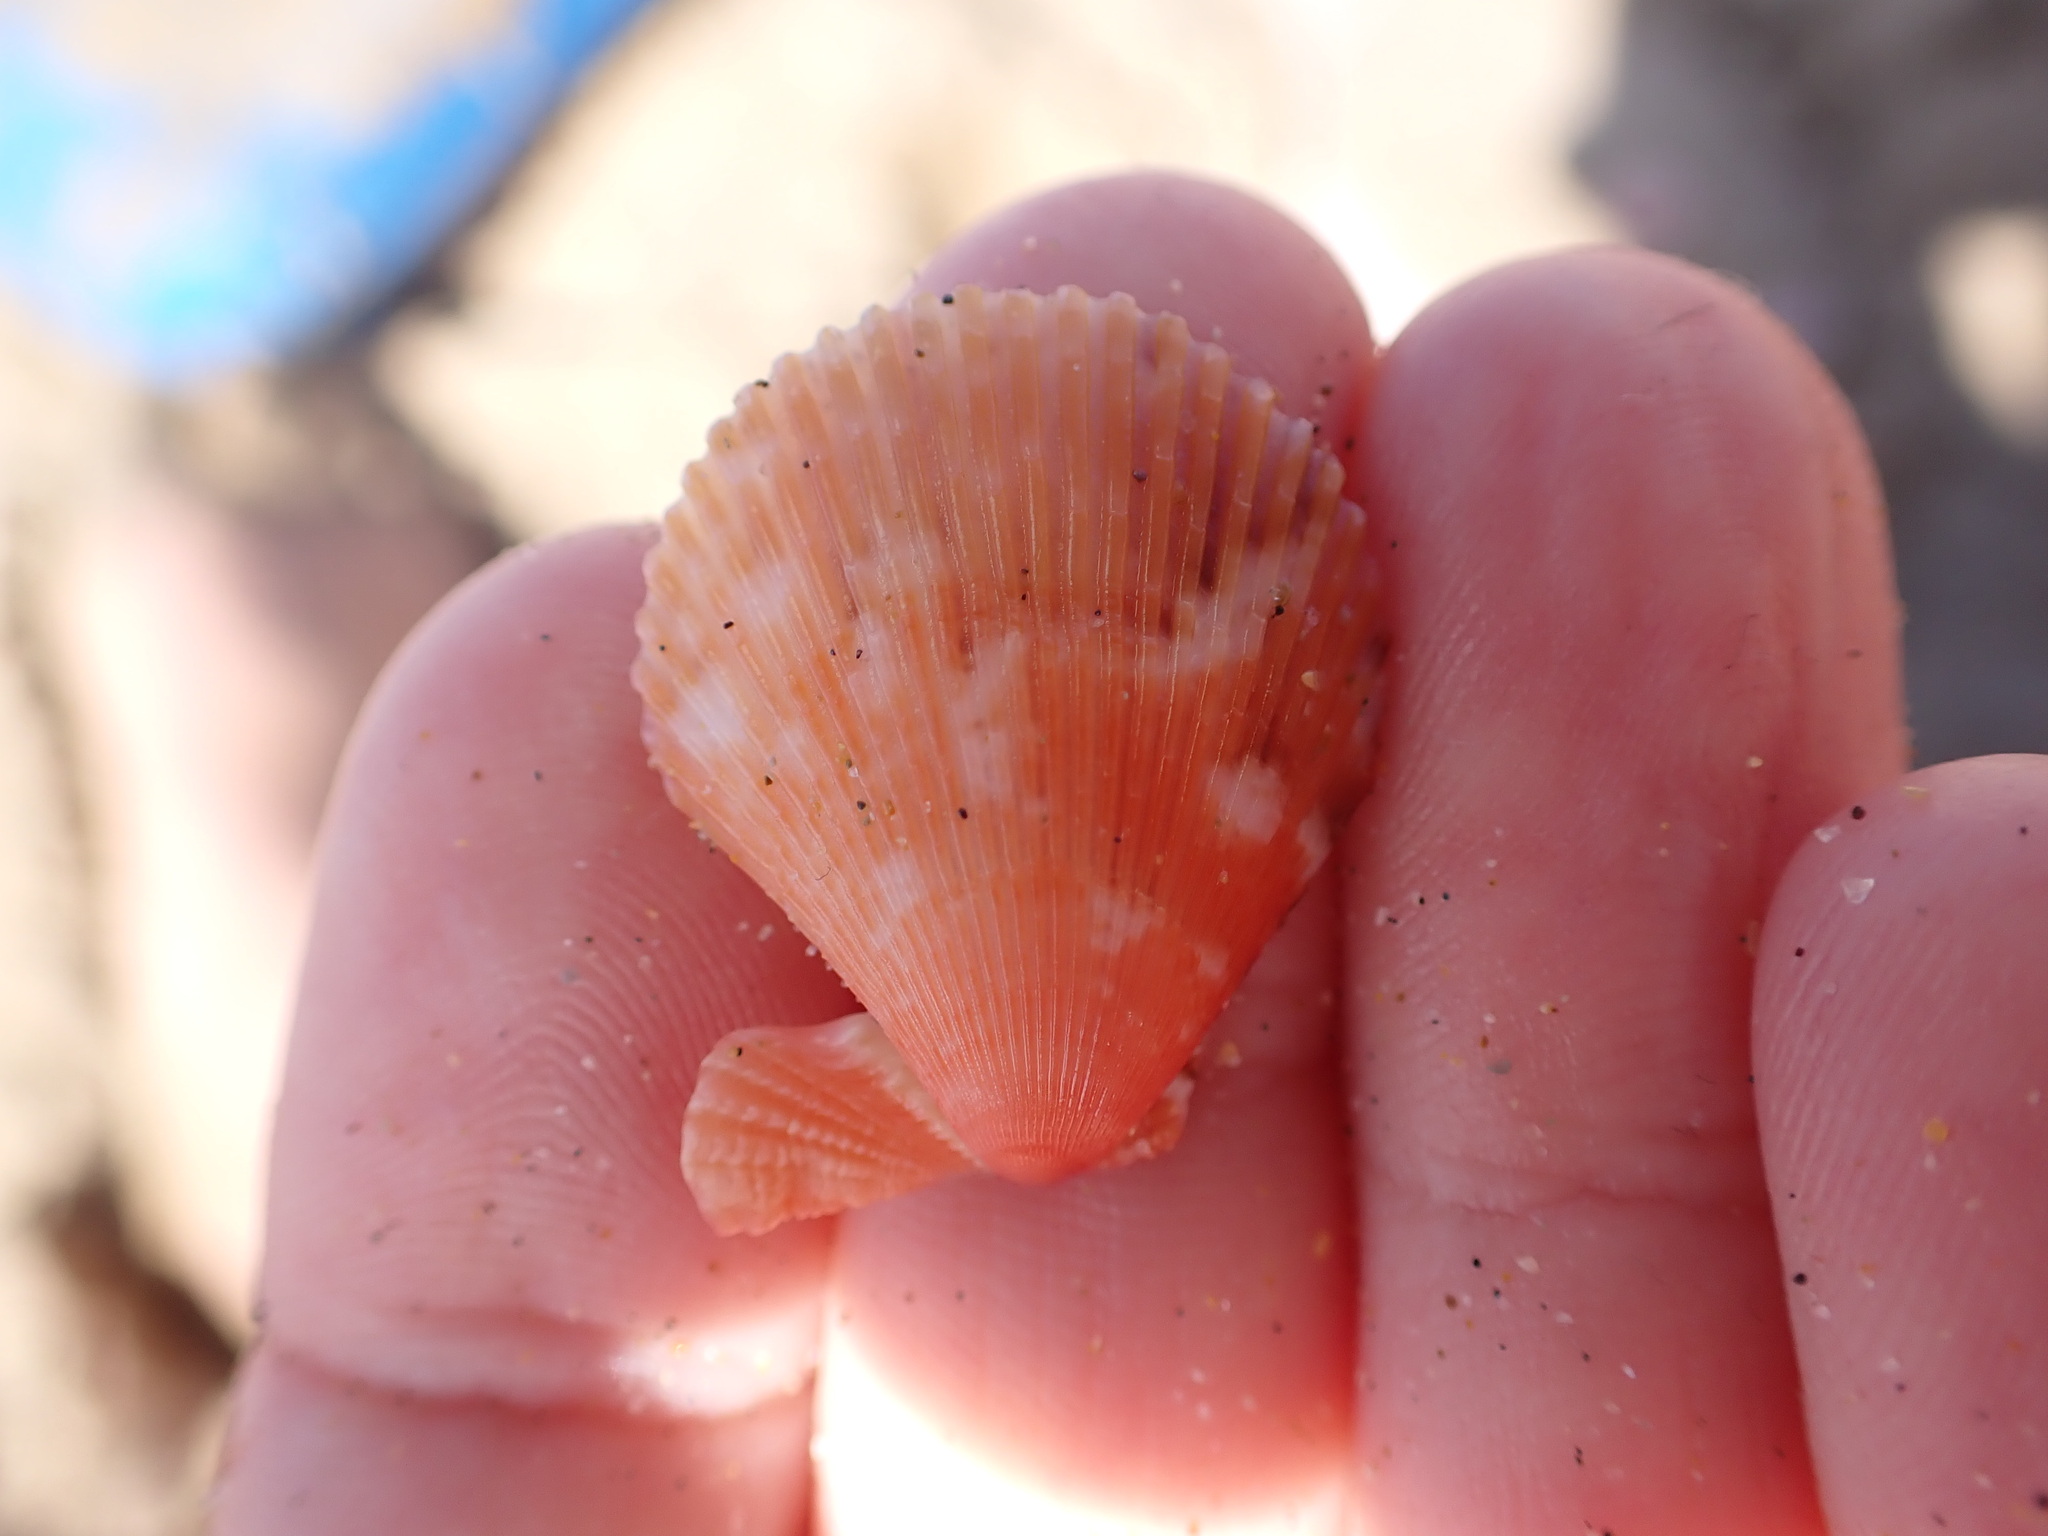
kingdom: Animalia
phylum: Mollusca
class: Bivalvia
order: Pectinida
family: Pectinidae
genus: Mimachlamys
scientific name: Mimachlamys varia
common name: Variegated scallop
